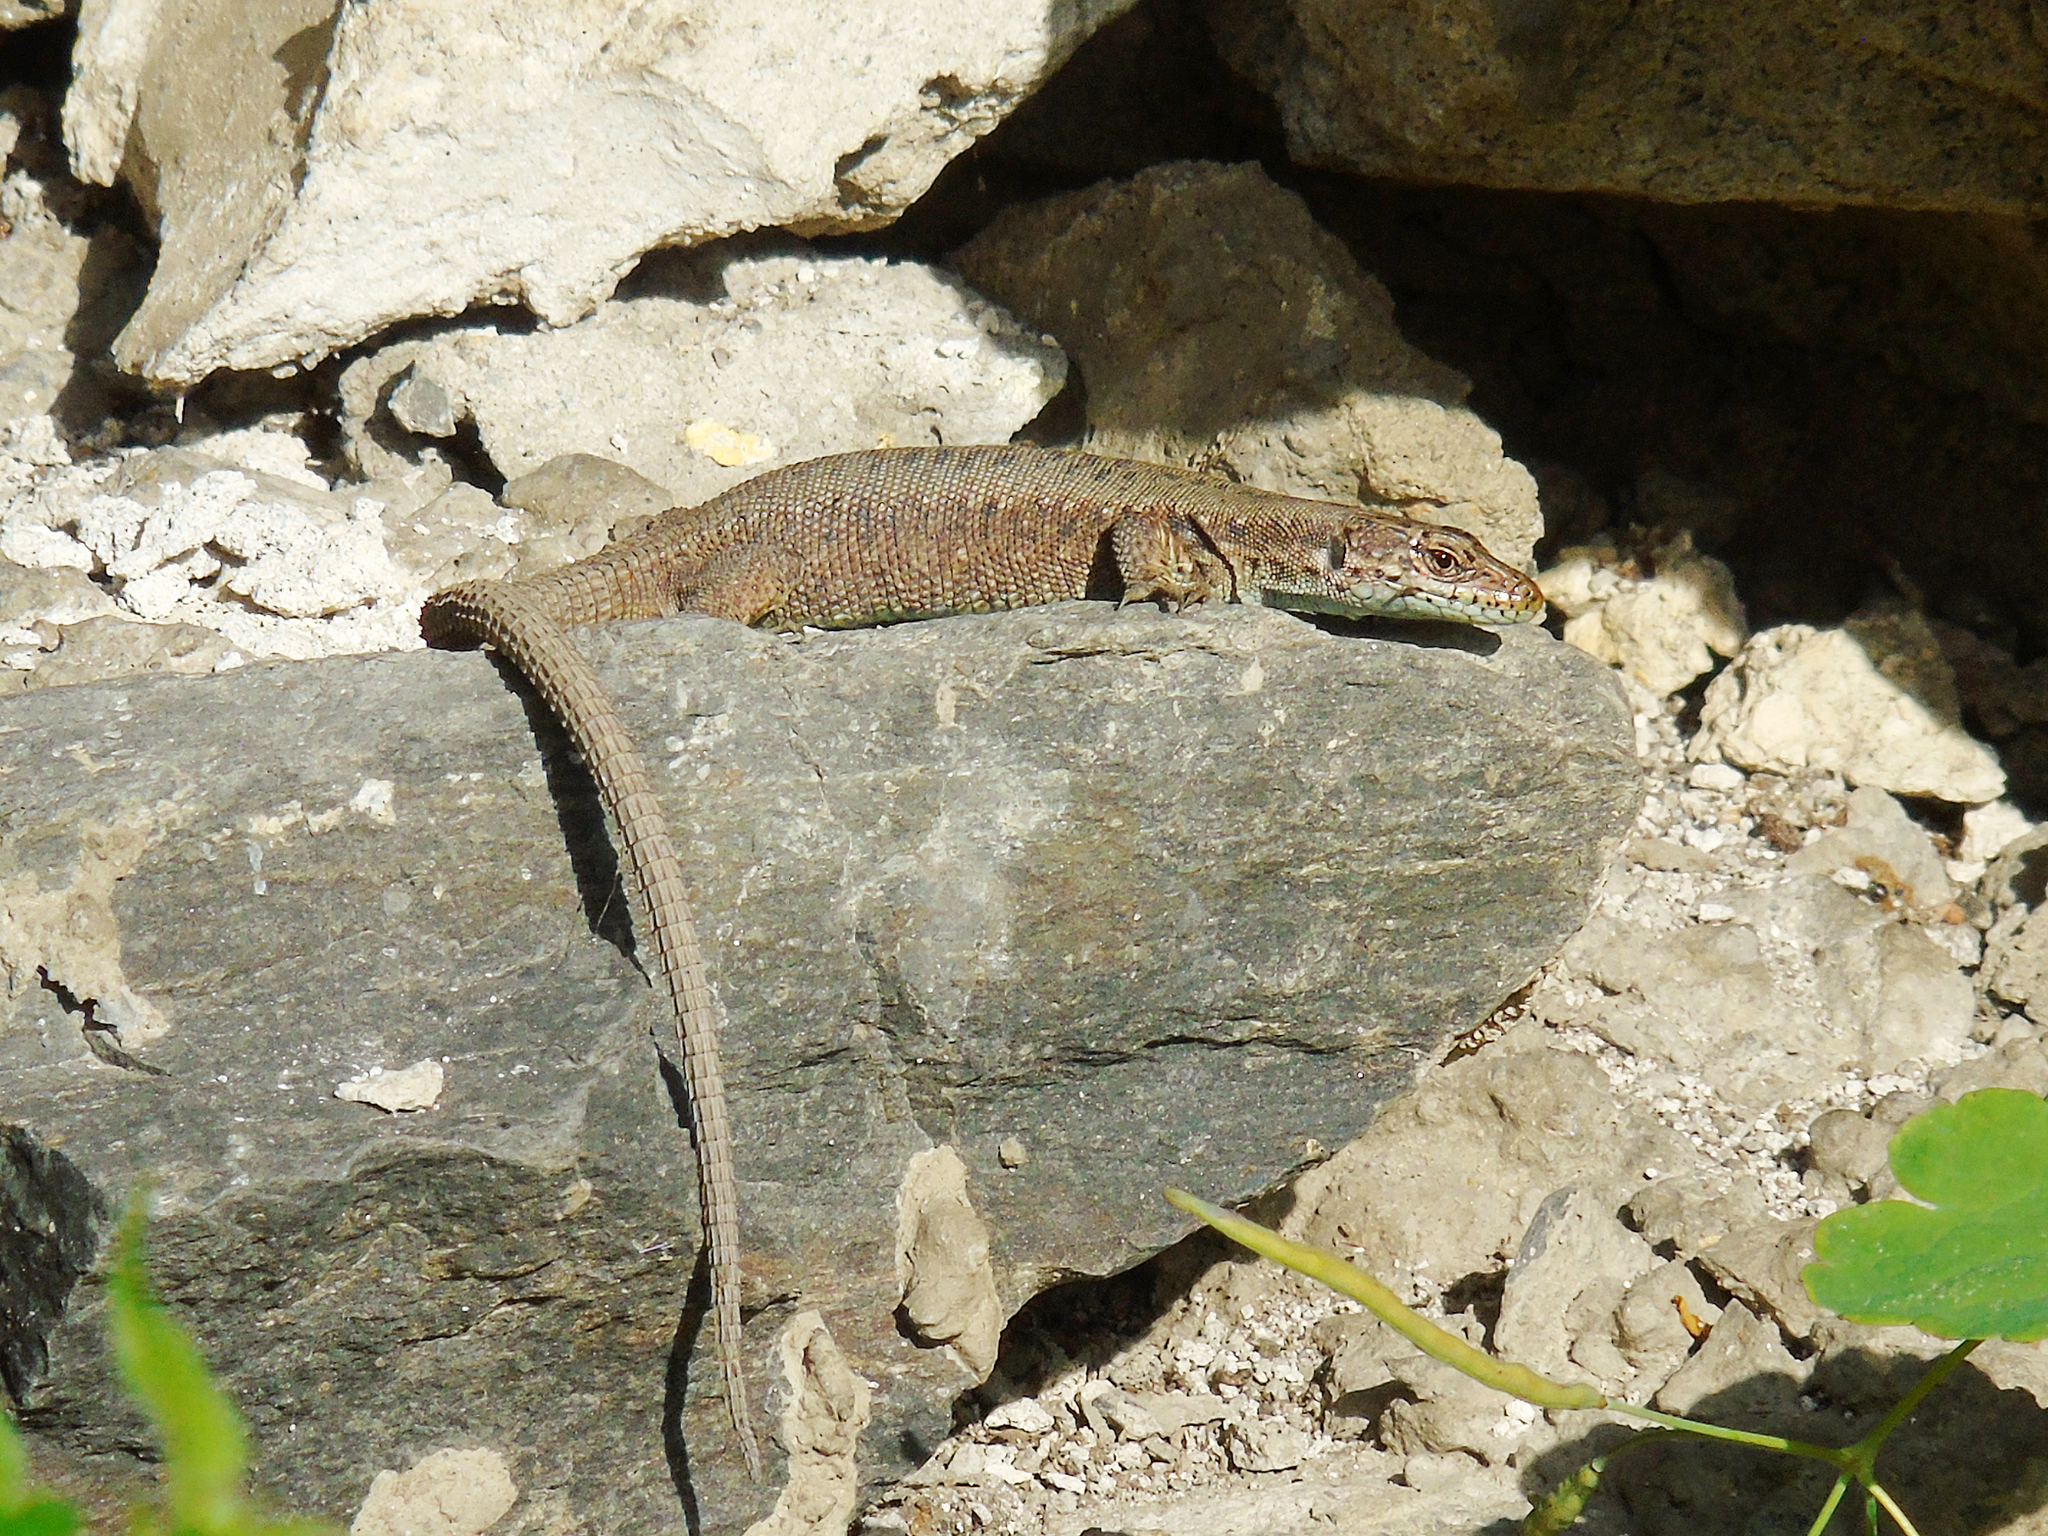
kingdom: Animalia
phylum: Chordata
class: Squamata
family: Lacertidae
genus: Darevskia
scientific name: Darevskia rudis
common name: Spiny-tailed lizard
